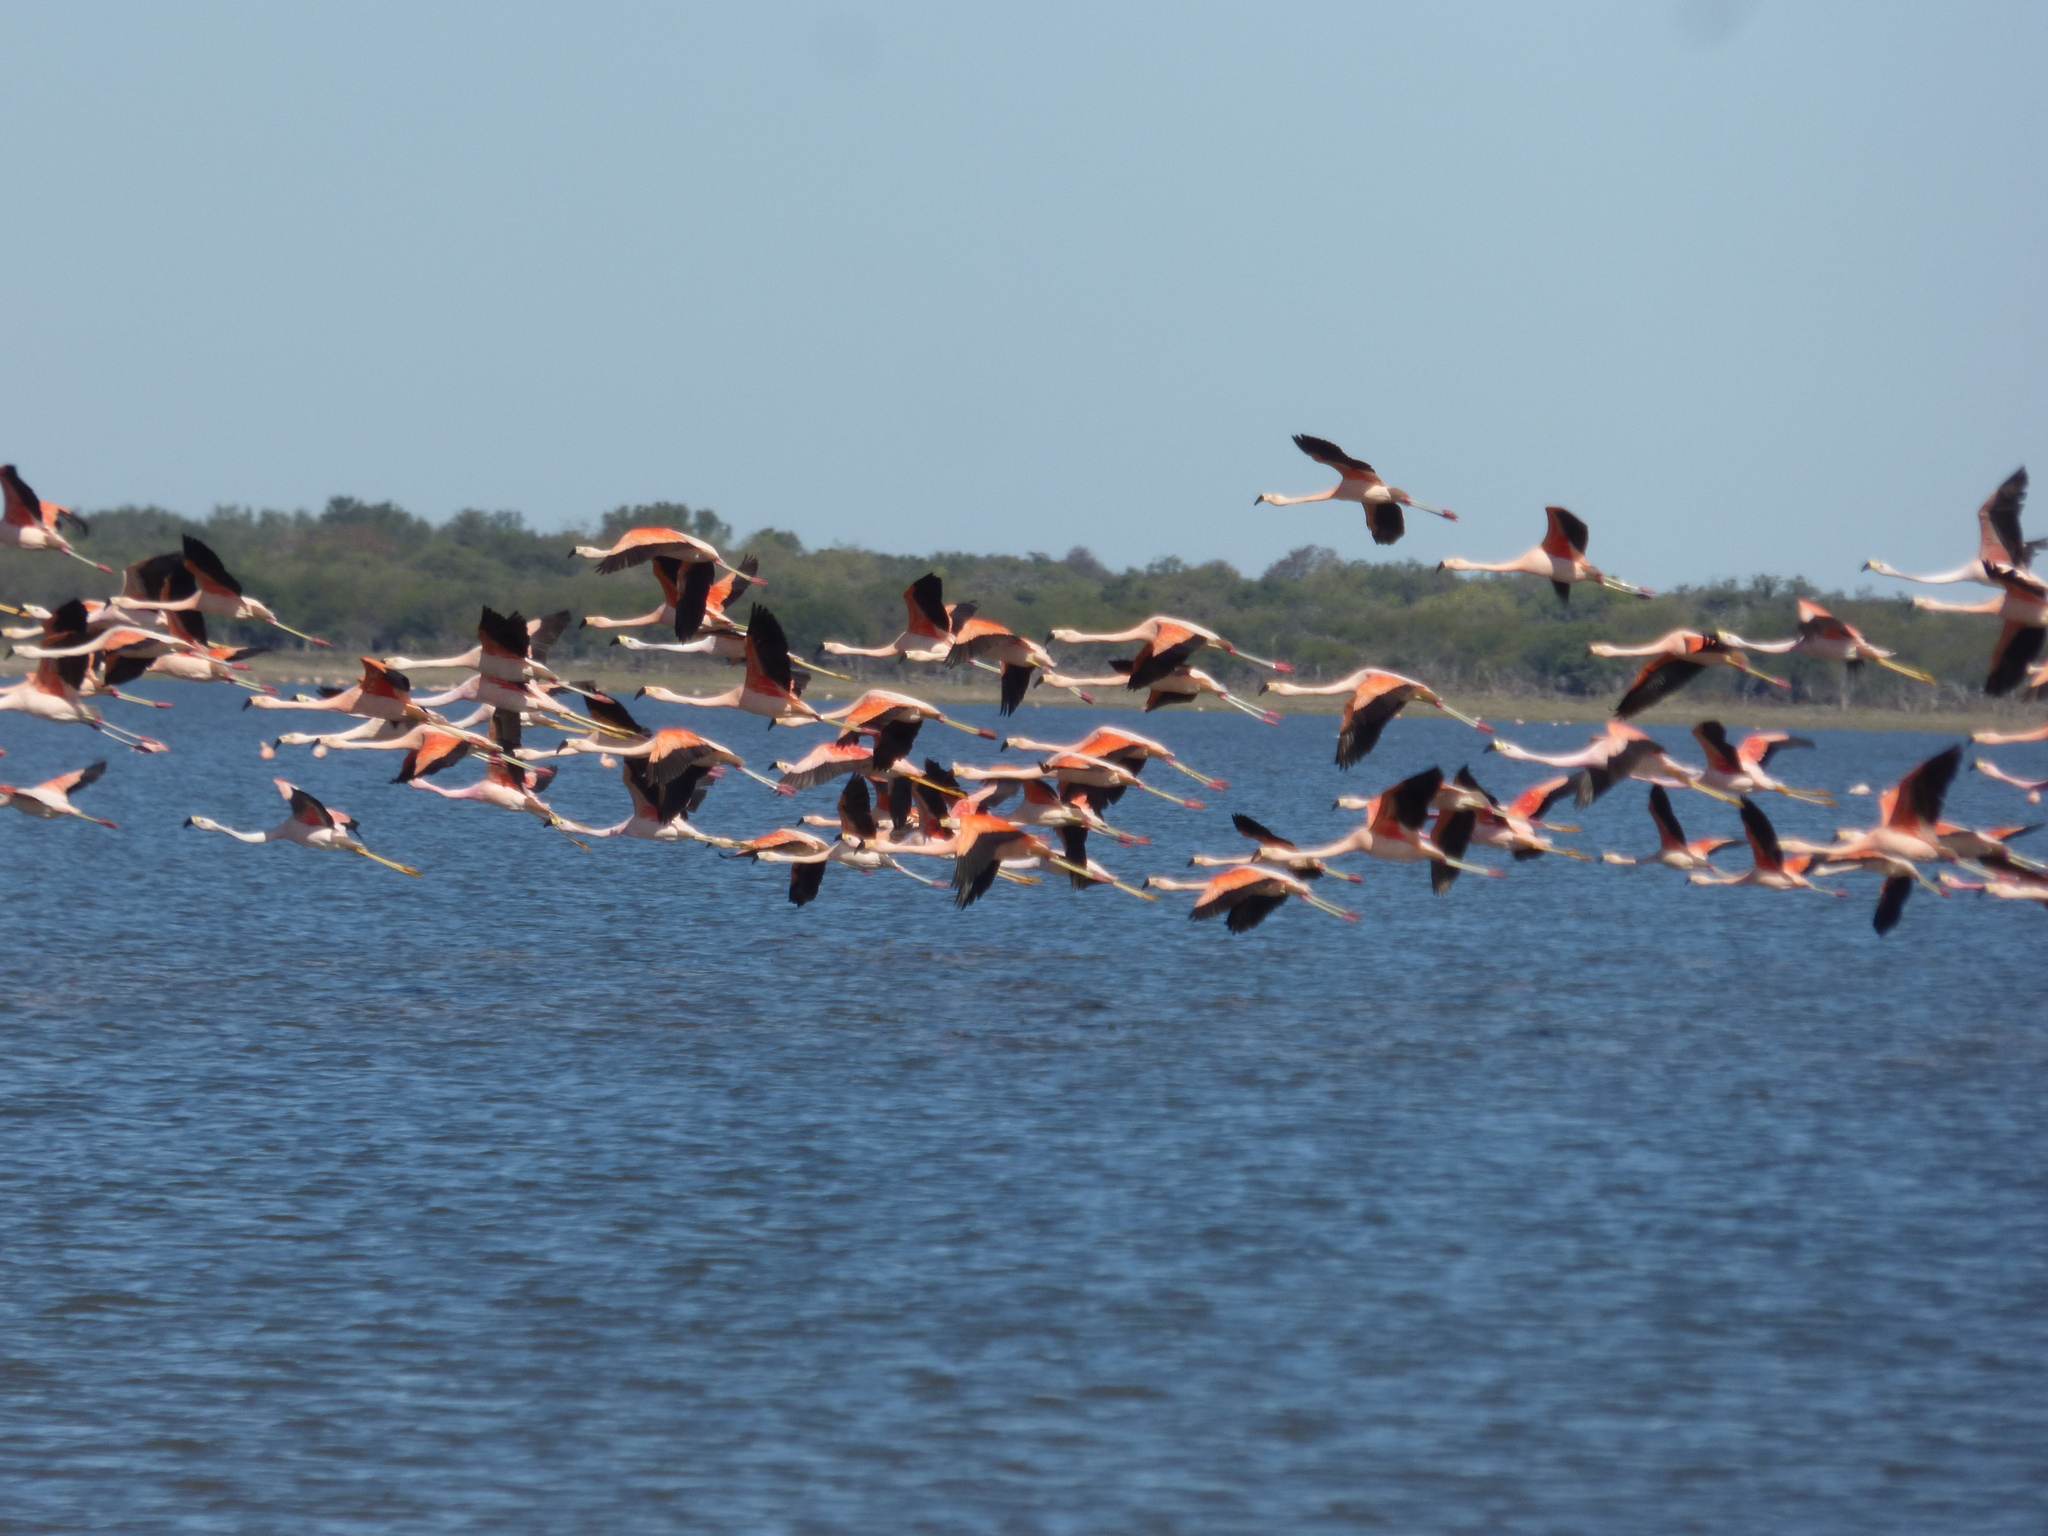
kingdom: Animalia
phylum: Chordata
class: Aves
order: Phoenicopteriformes
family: Phoenicopteridae
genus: Phoenicopterus
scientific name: Phoenicopterus chilensis
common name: Chilean flamingo
